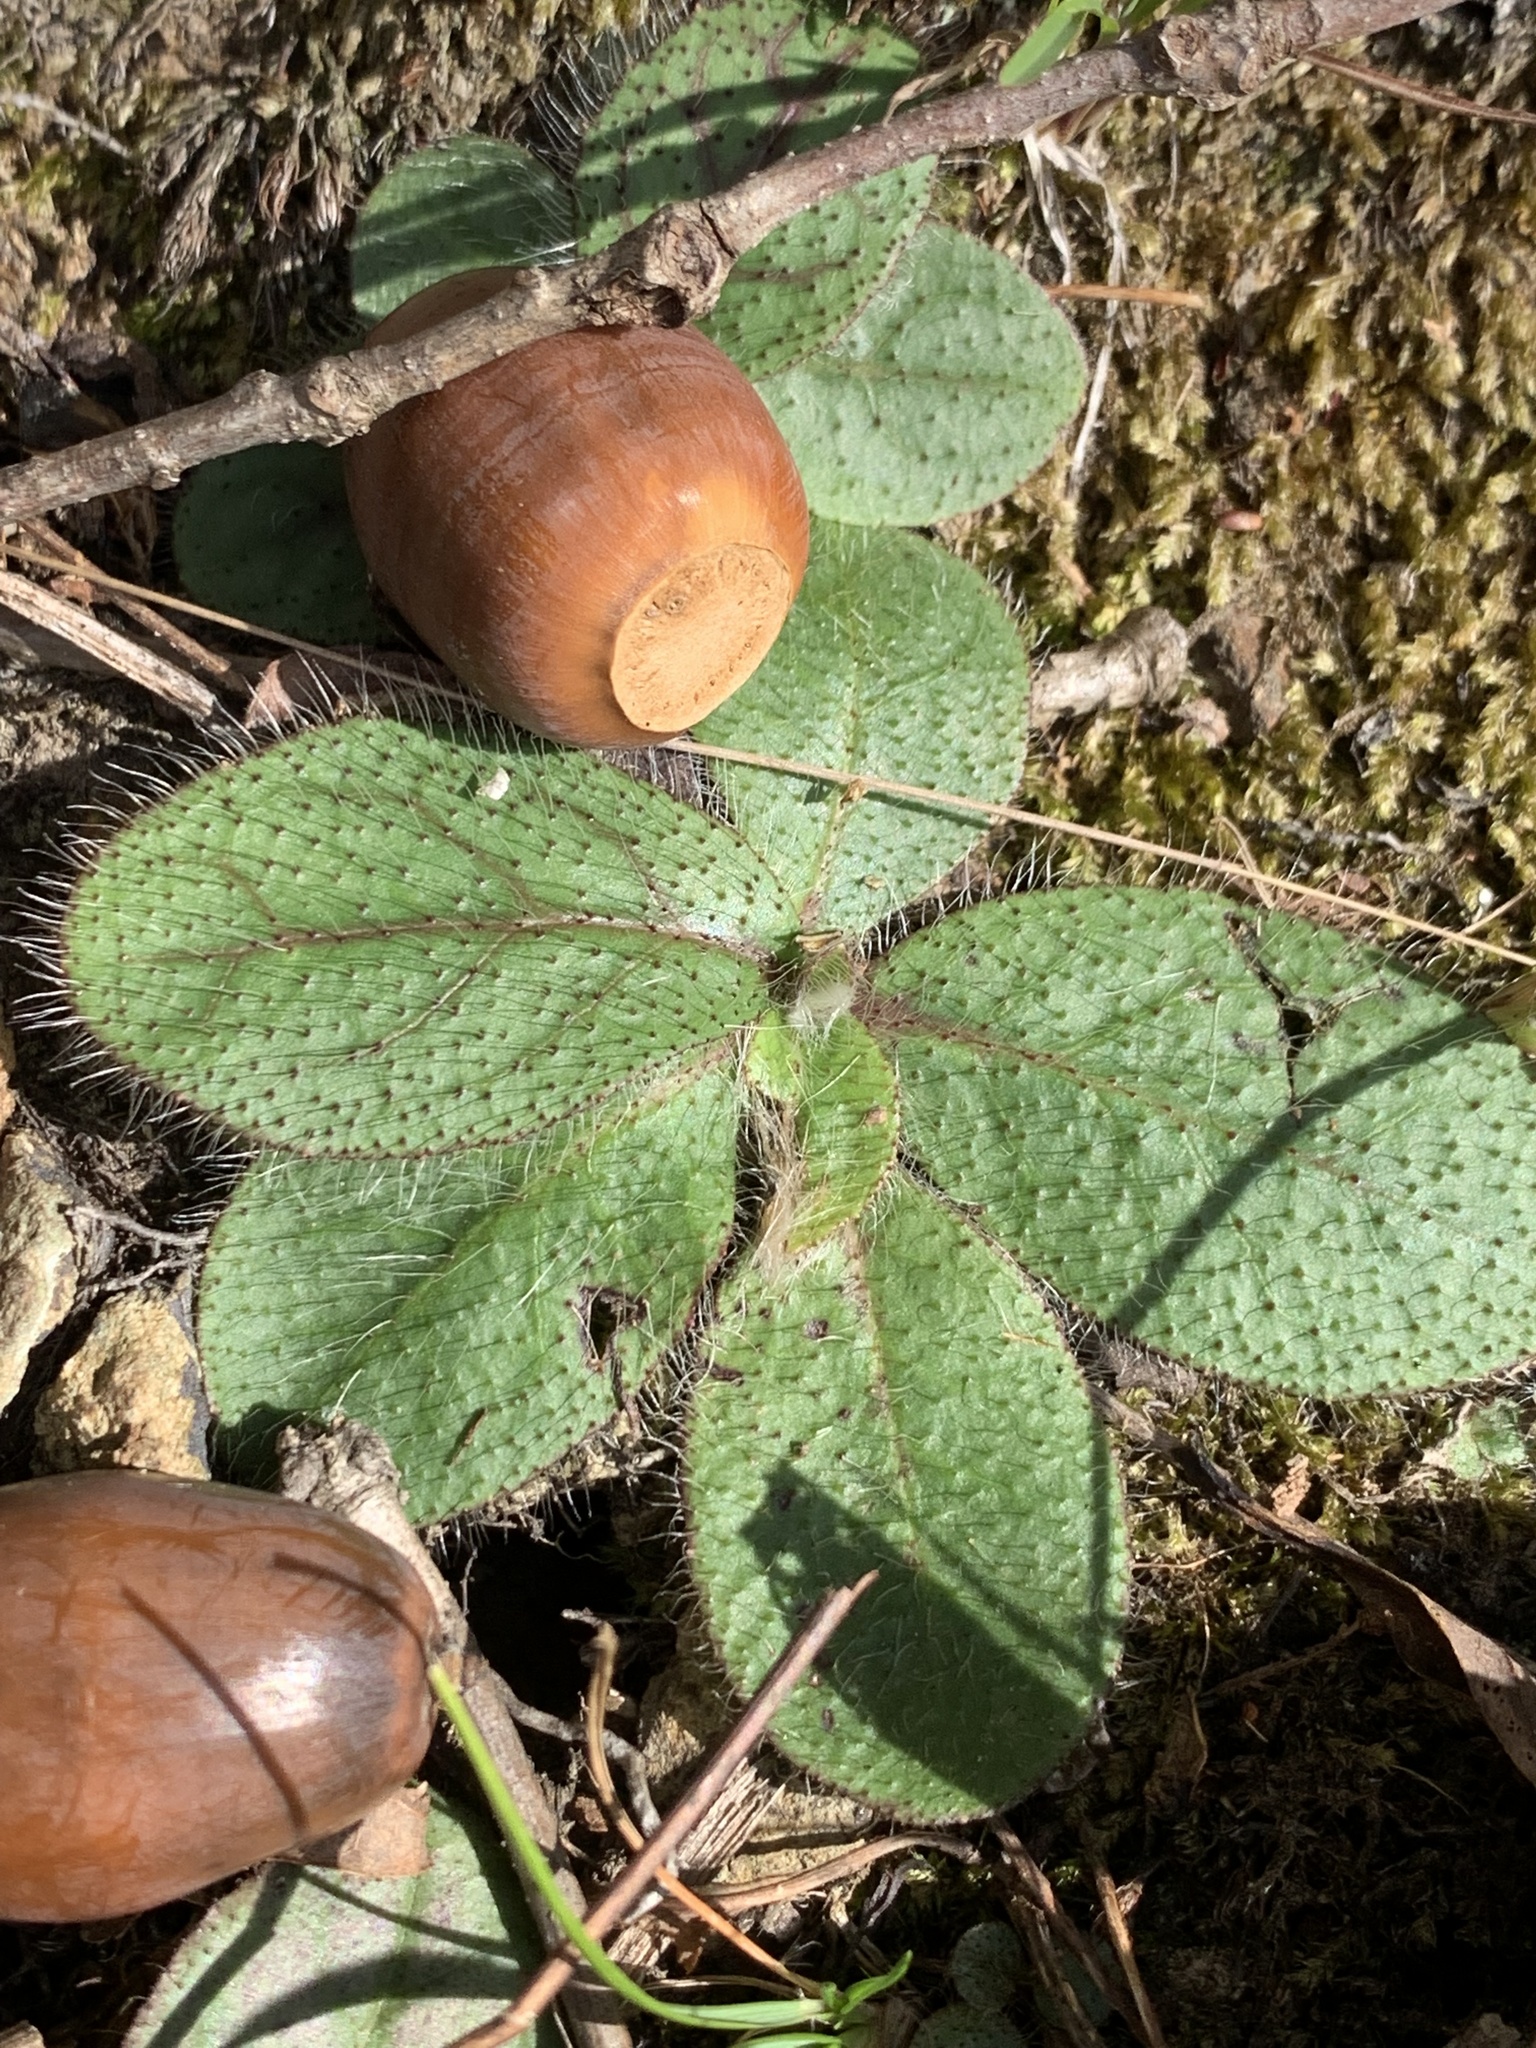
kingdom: Plantae
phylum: Tracheophyta
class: Magnoliopsida
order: Asterales
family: Asteraceae
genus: Hieracium
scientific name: Hieracium venosum
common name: Rattlesnake hawkweed
